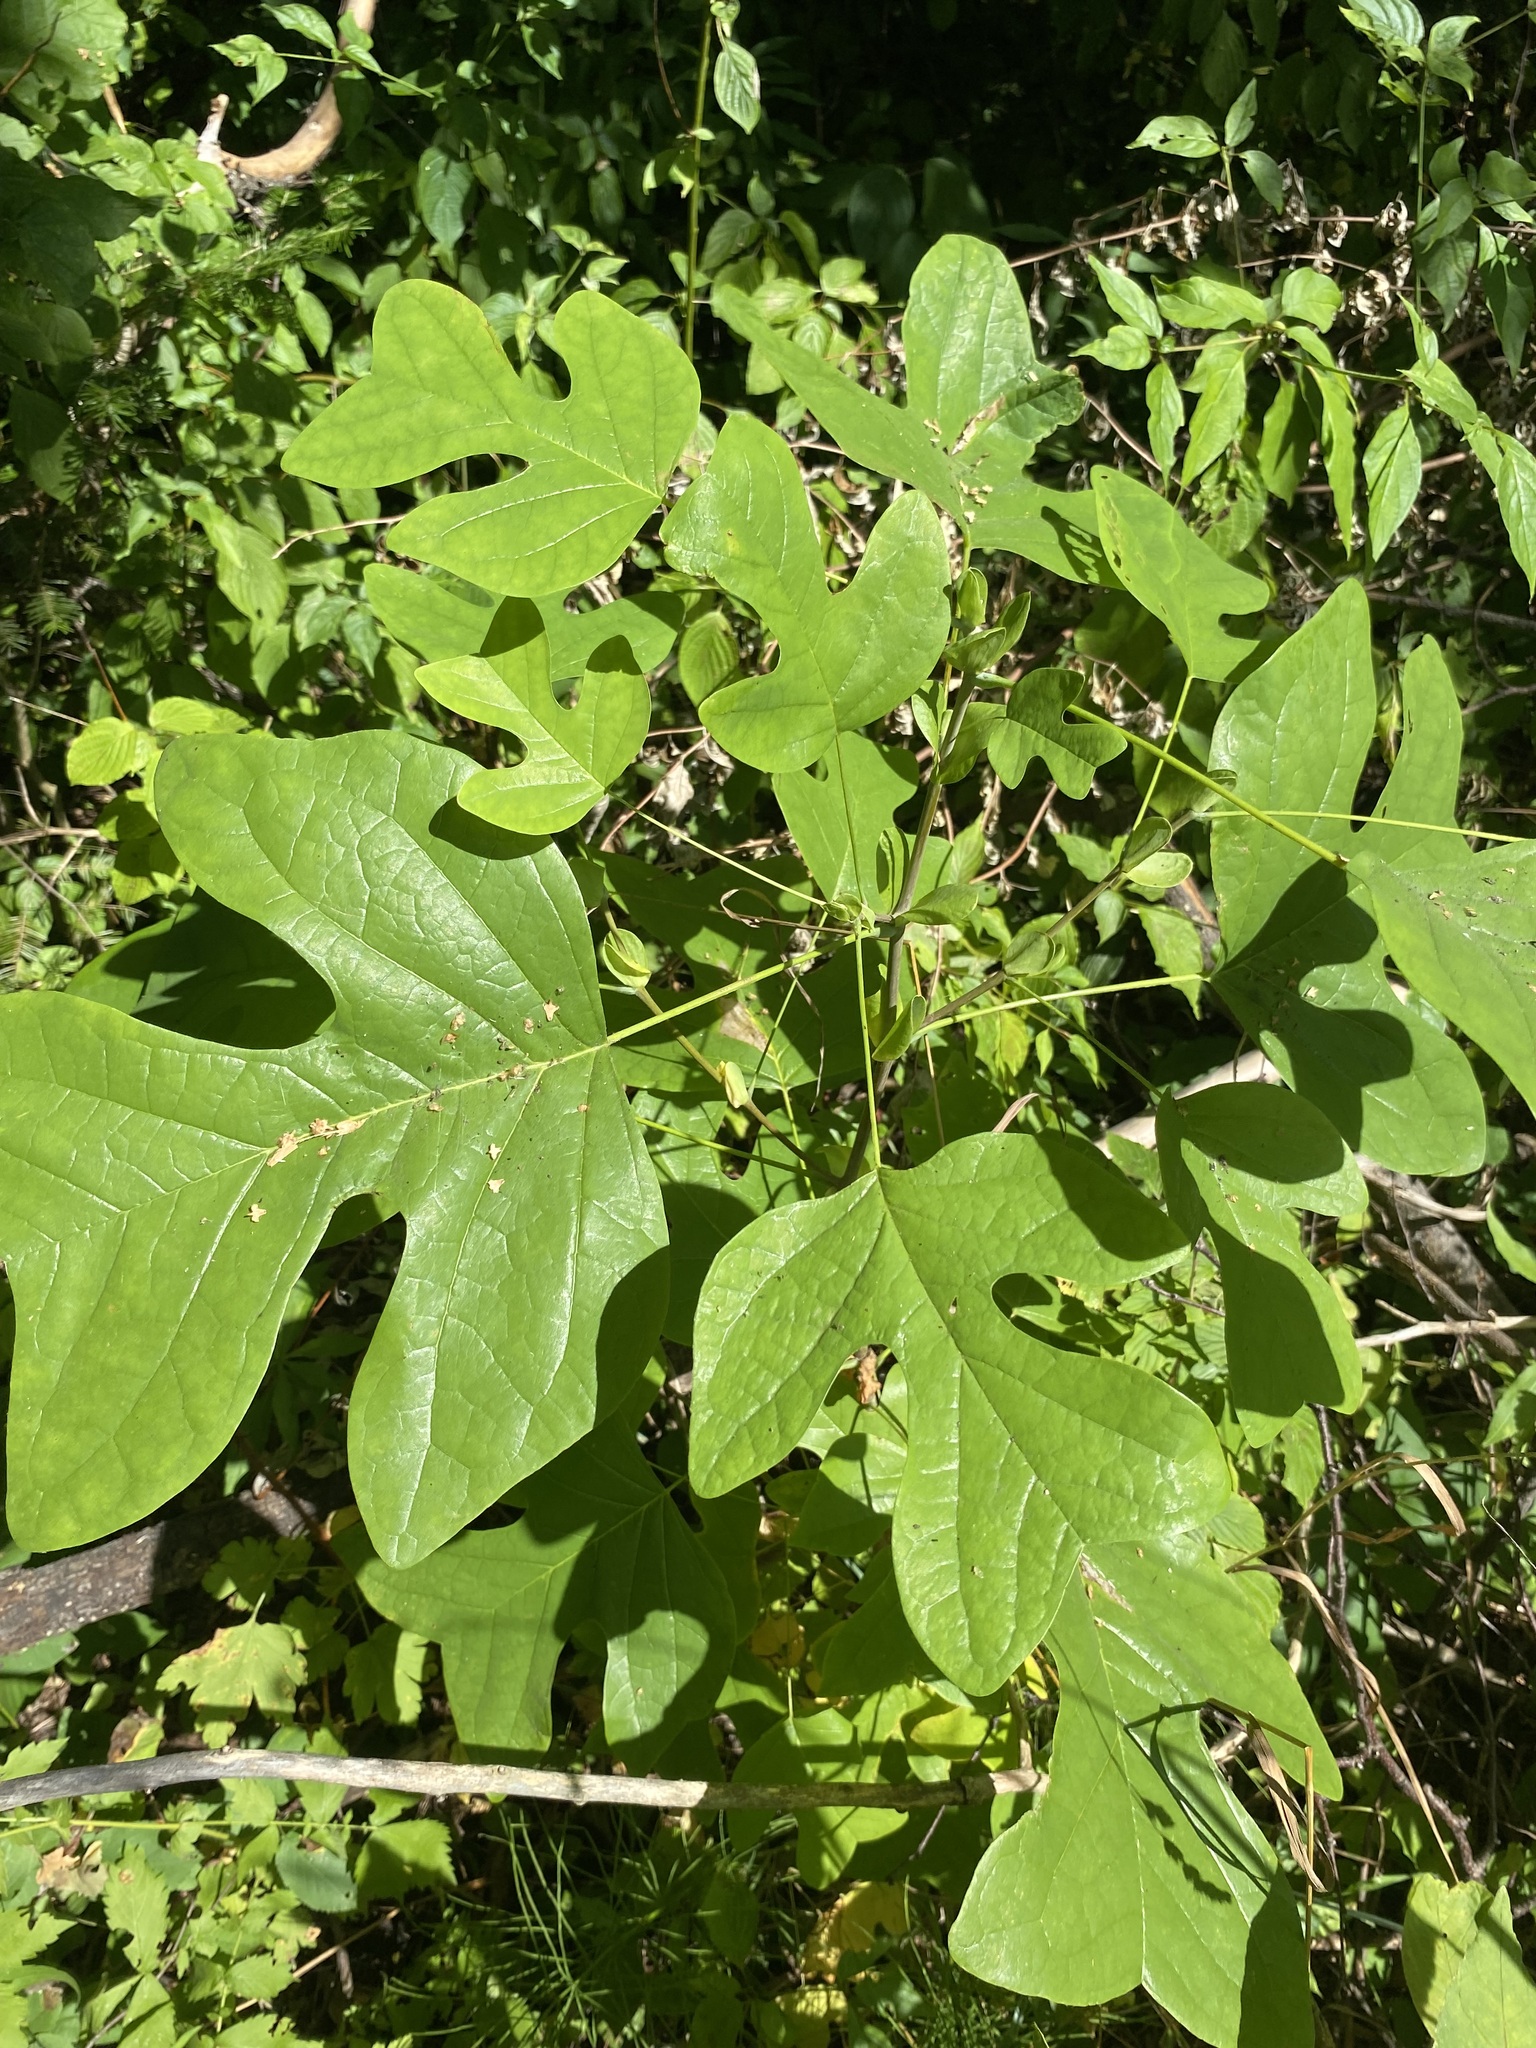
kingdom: Plantae
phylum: Tracheophyta
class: Magnoliopsida
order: Magnoliales
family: Magnoliaceae
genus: Liriodendron
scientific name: Liriodendron tulipifera
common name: Tulip tree
